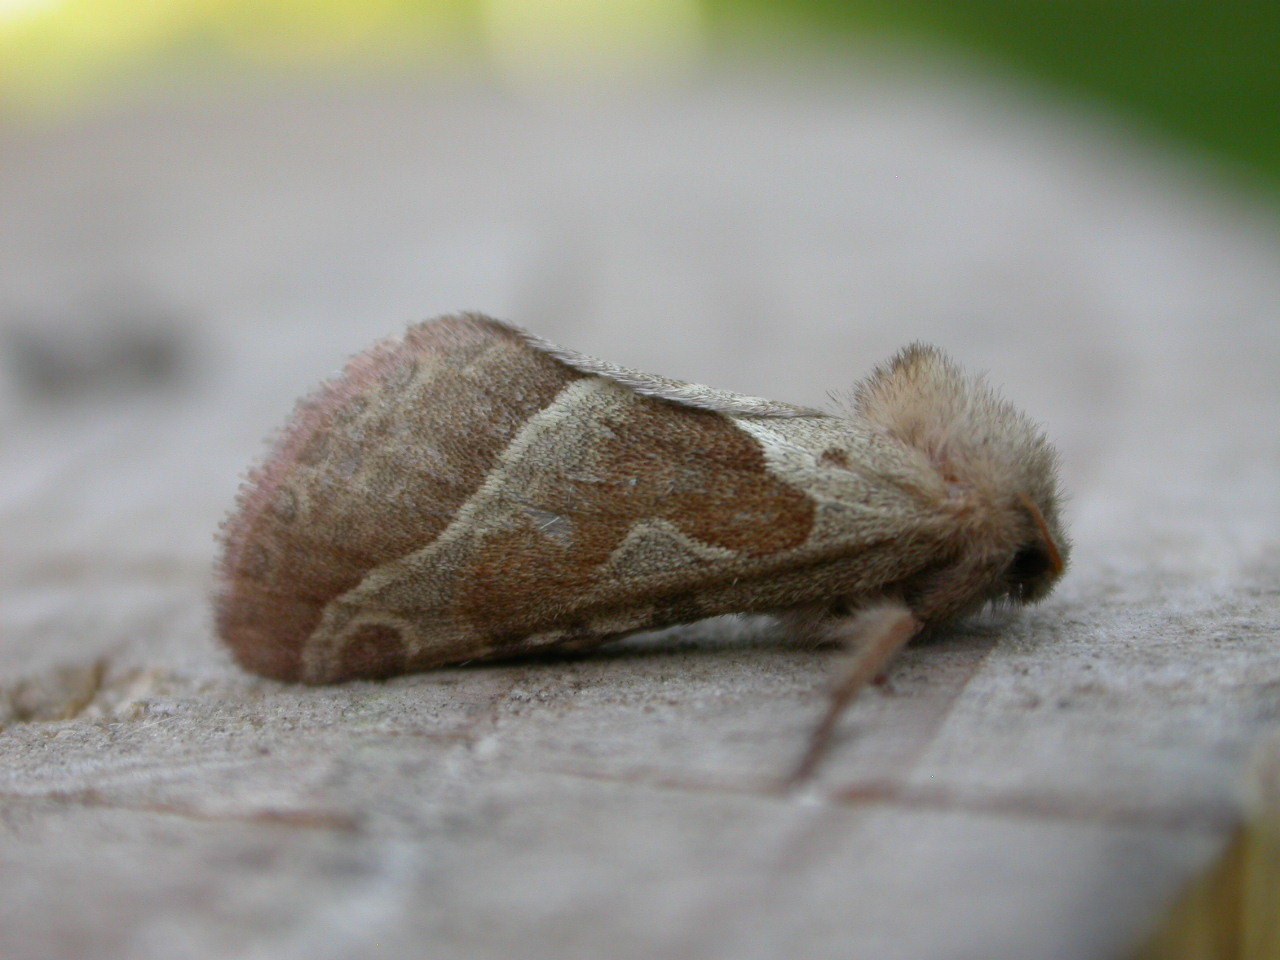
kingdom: Animalia
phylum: Arthropoda
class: Insecta
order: Lepidoptera
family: Hepialidae
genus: Triodia
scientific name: Triodia sylvina
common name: Orange swift
